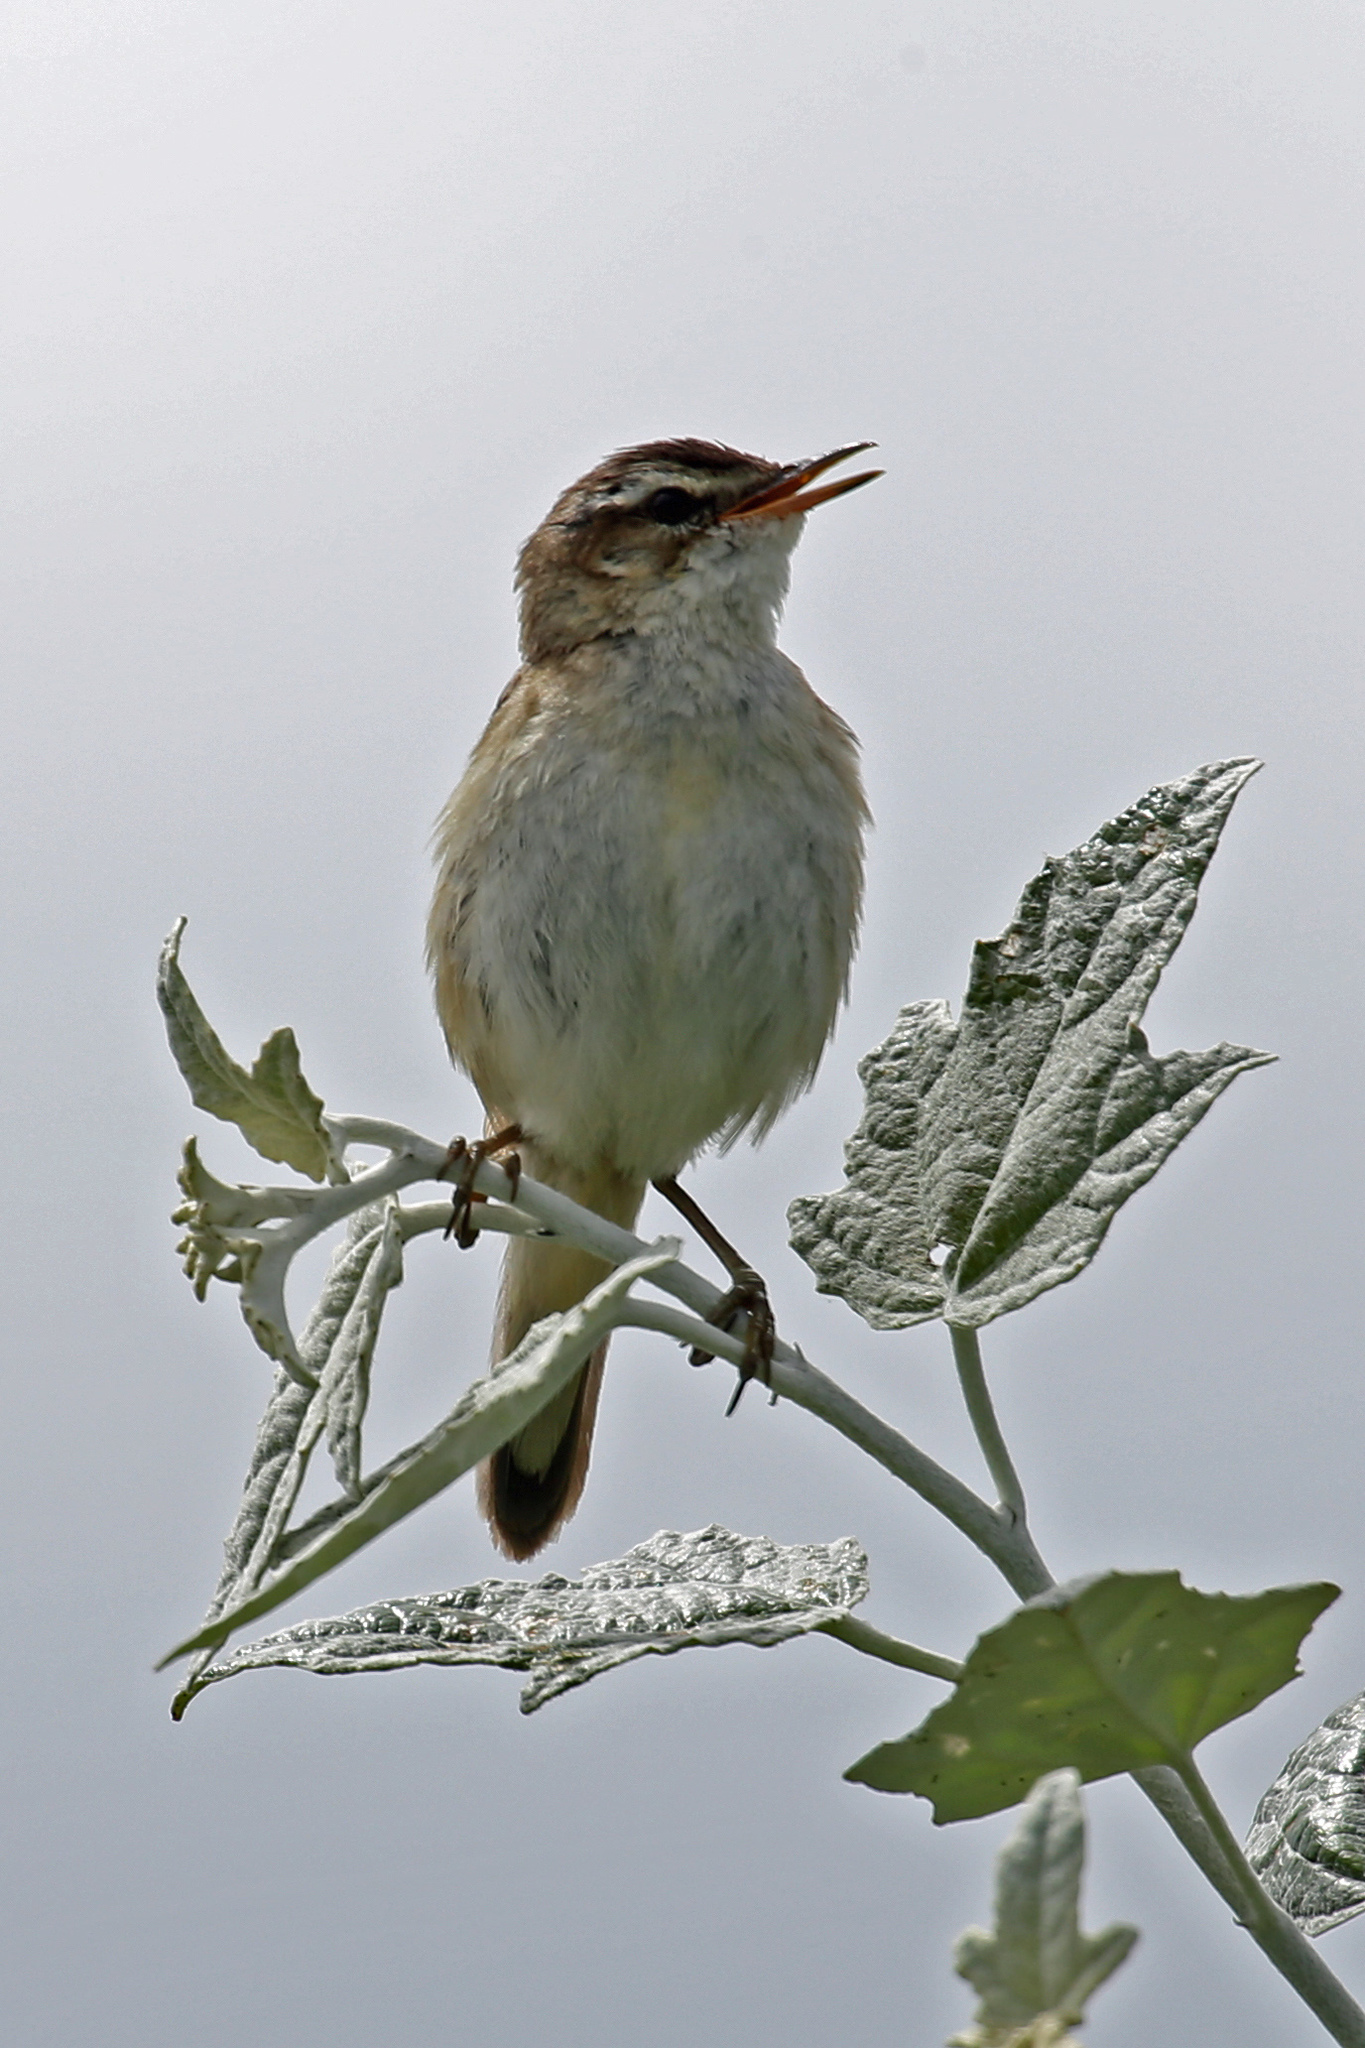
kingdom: Animalia
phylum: Chordata
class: Aves
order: Passeriformes
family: Acrocephalidae
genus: Acrocephalus
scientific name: Acrocephalus schoenobaenus
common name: Sedge warbler
